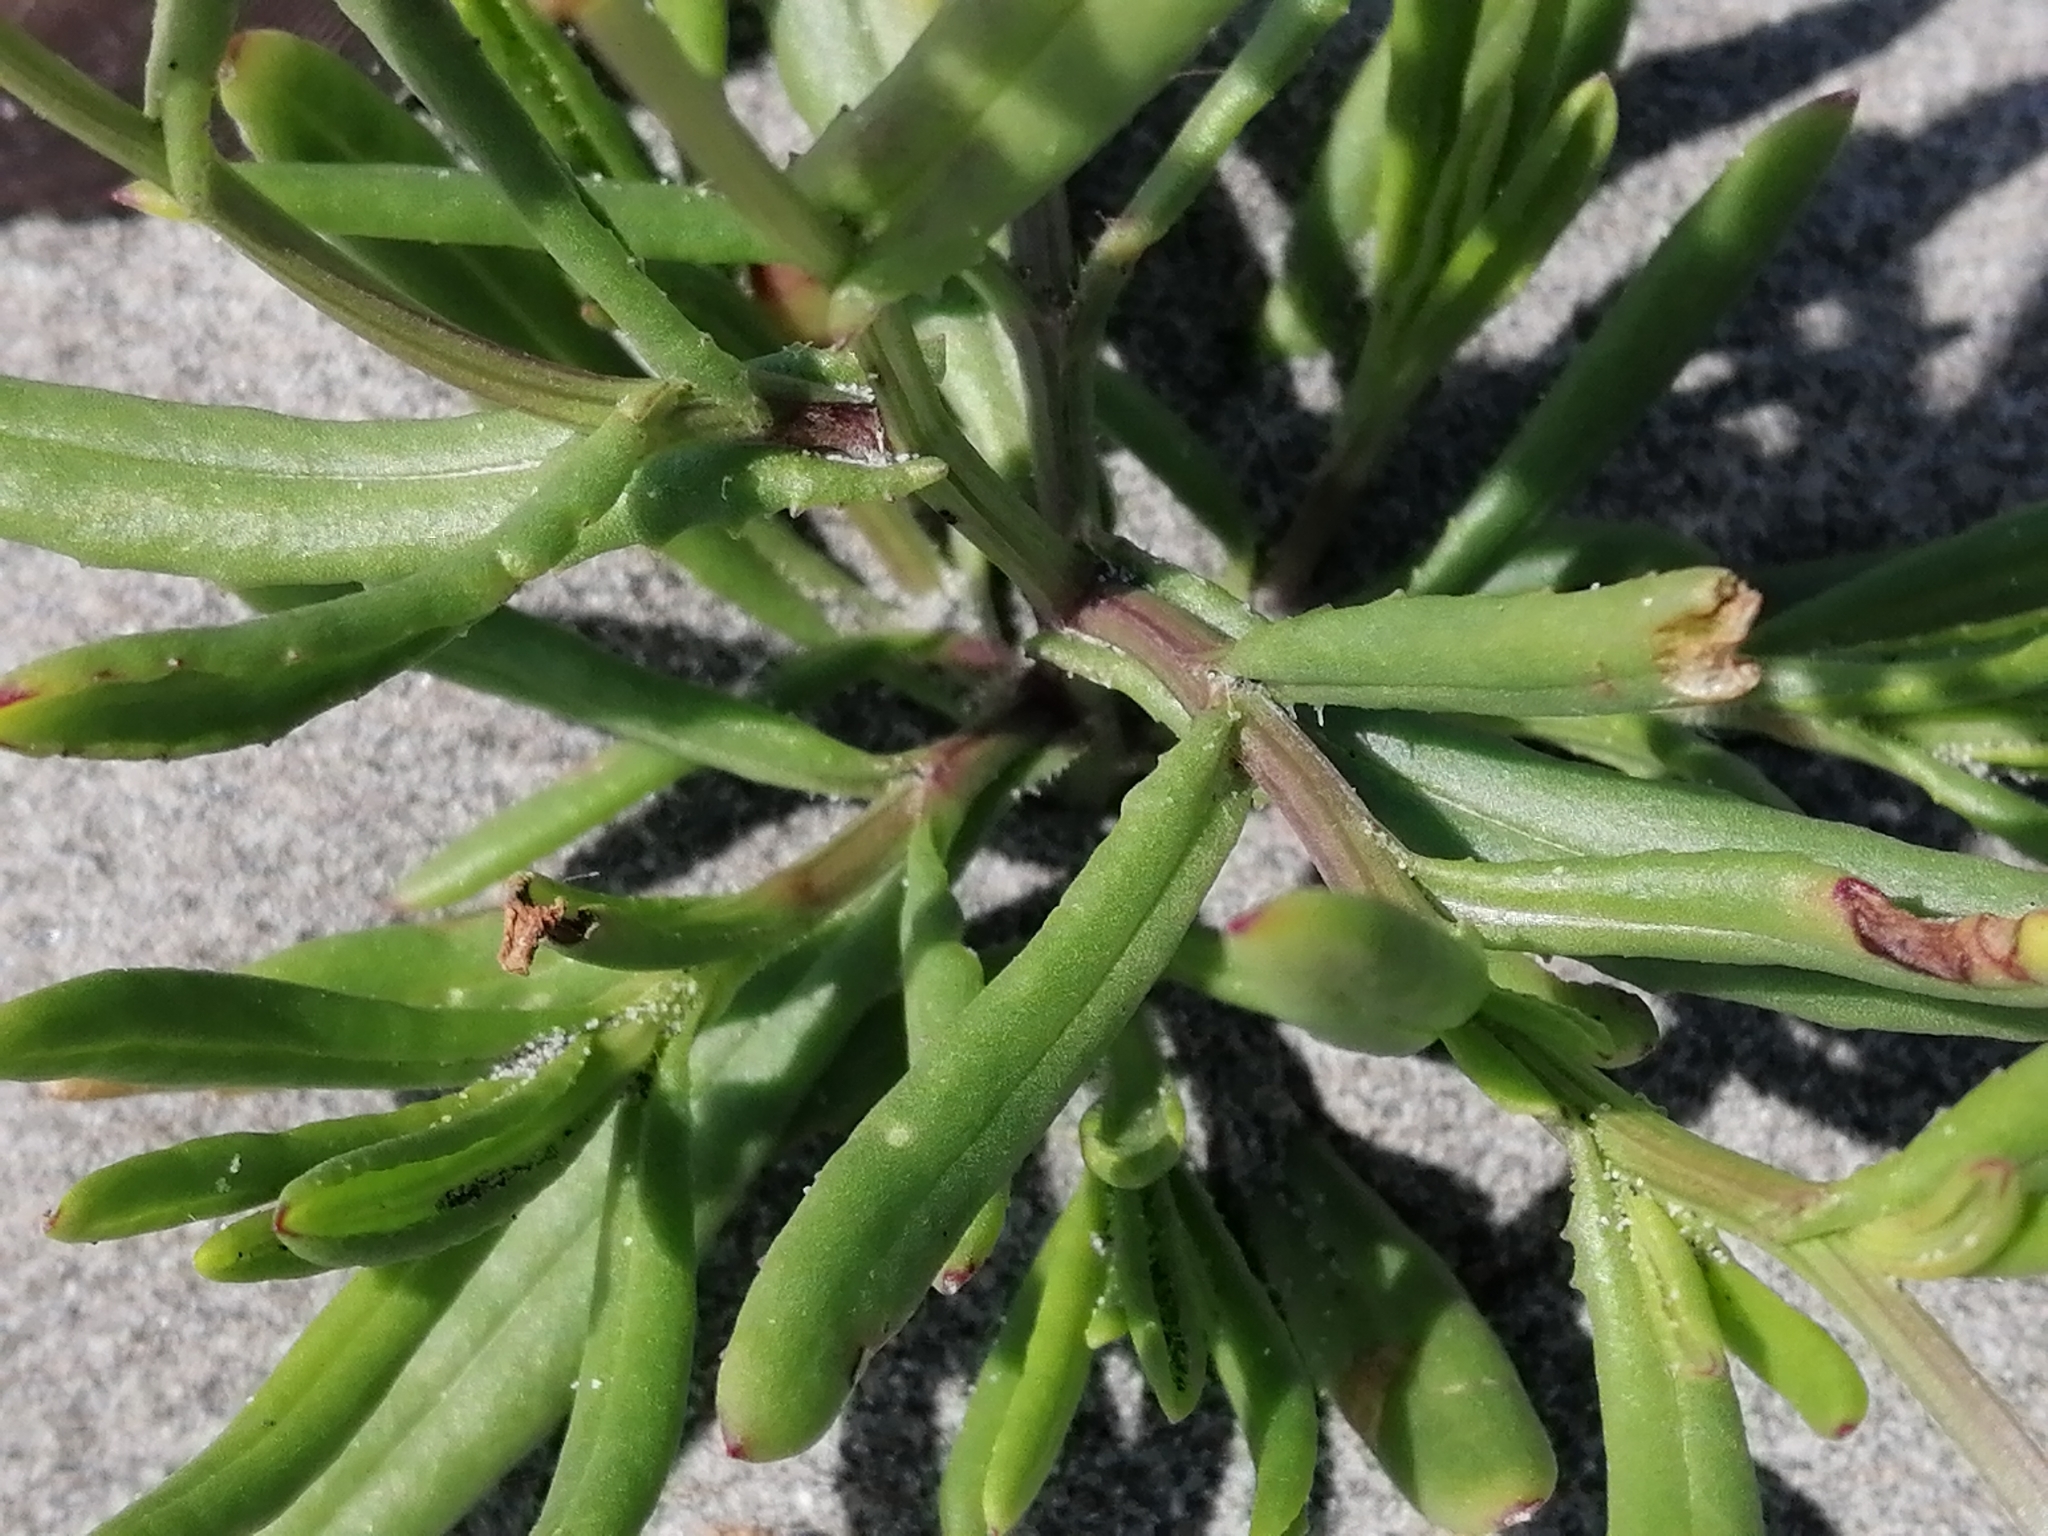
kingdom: Plantae
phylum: Tracheophyta
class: Magnoliopsida
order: Asterales
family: Asteraceae
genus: Senecio
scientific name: Senecio elegans
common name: Purple groundsel
